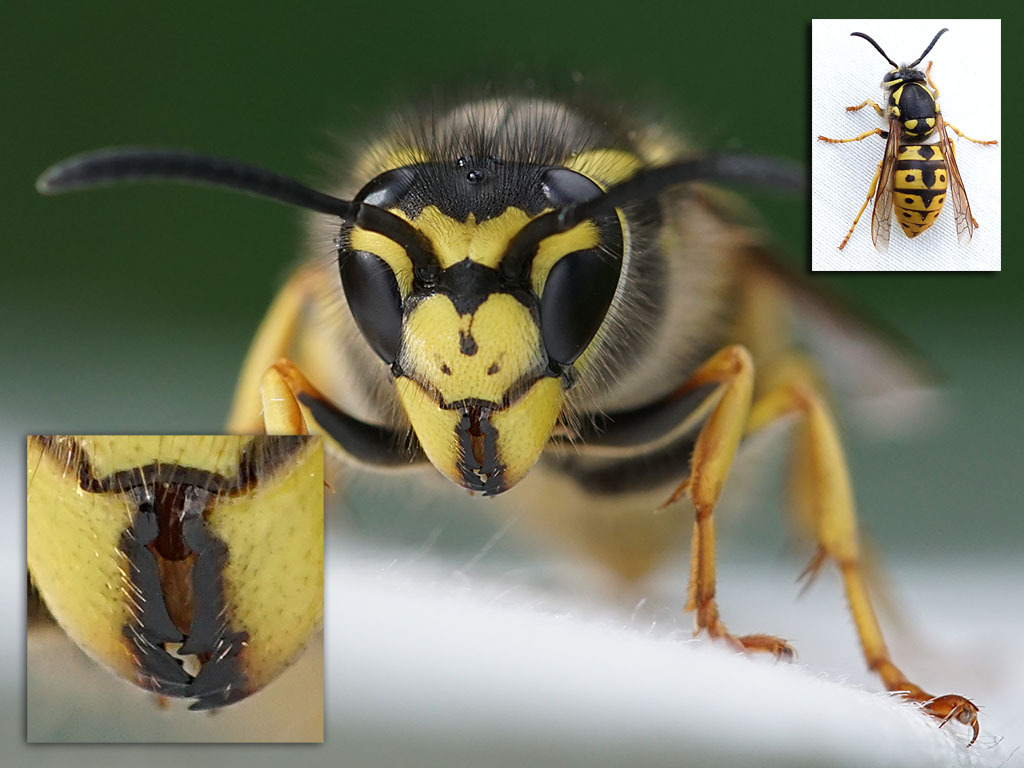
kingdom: Animalia
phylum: Arthropoda
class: Insecta
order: Hymenoptera
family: Vespidae
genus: Vespula
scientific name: Vespula germanica
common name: German wasp
